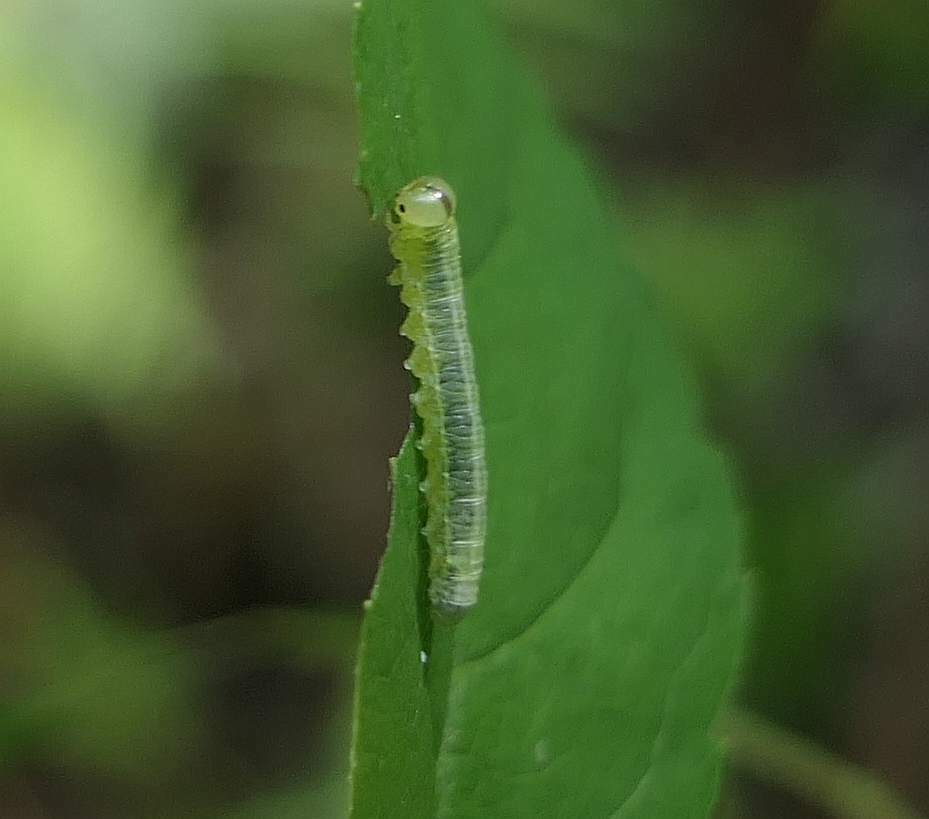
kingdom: Animalia
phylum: Arthropoda
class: Insecta
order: Hymenoptera
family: Tenthredinidae
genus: Pristiphora
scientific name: Pristiphora bivittata
